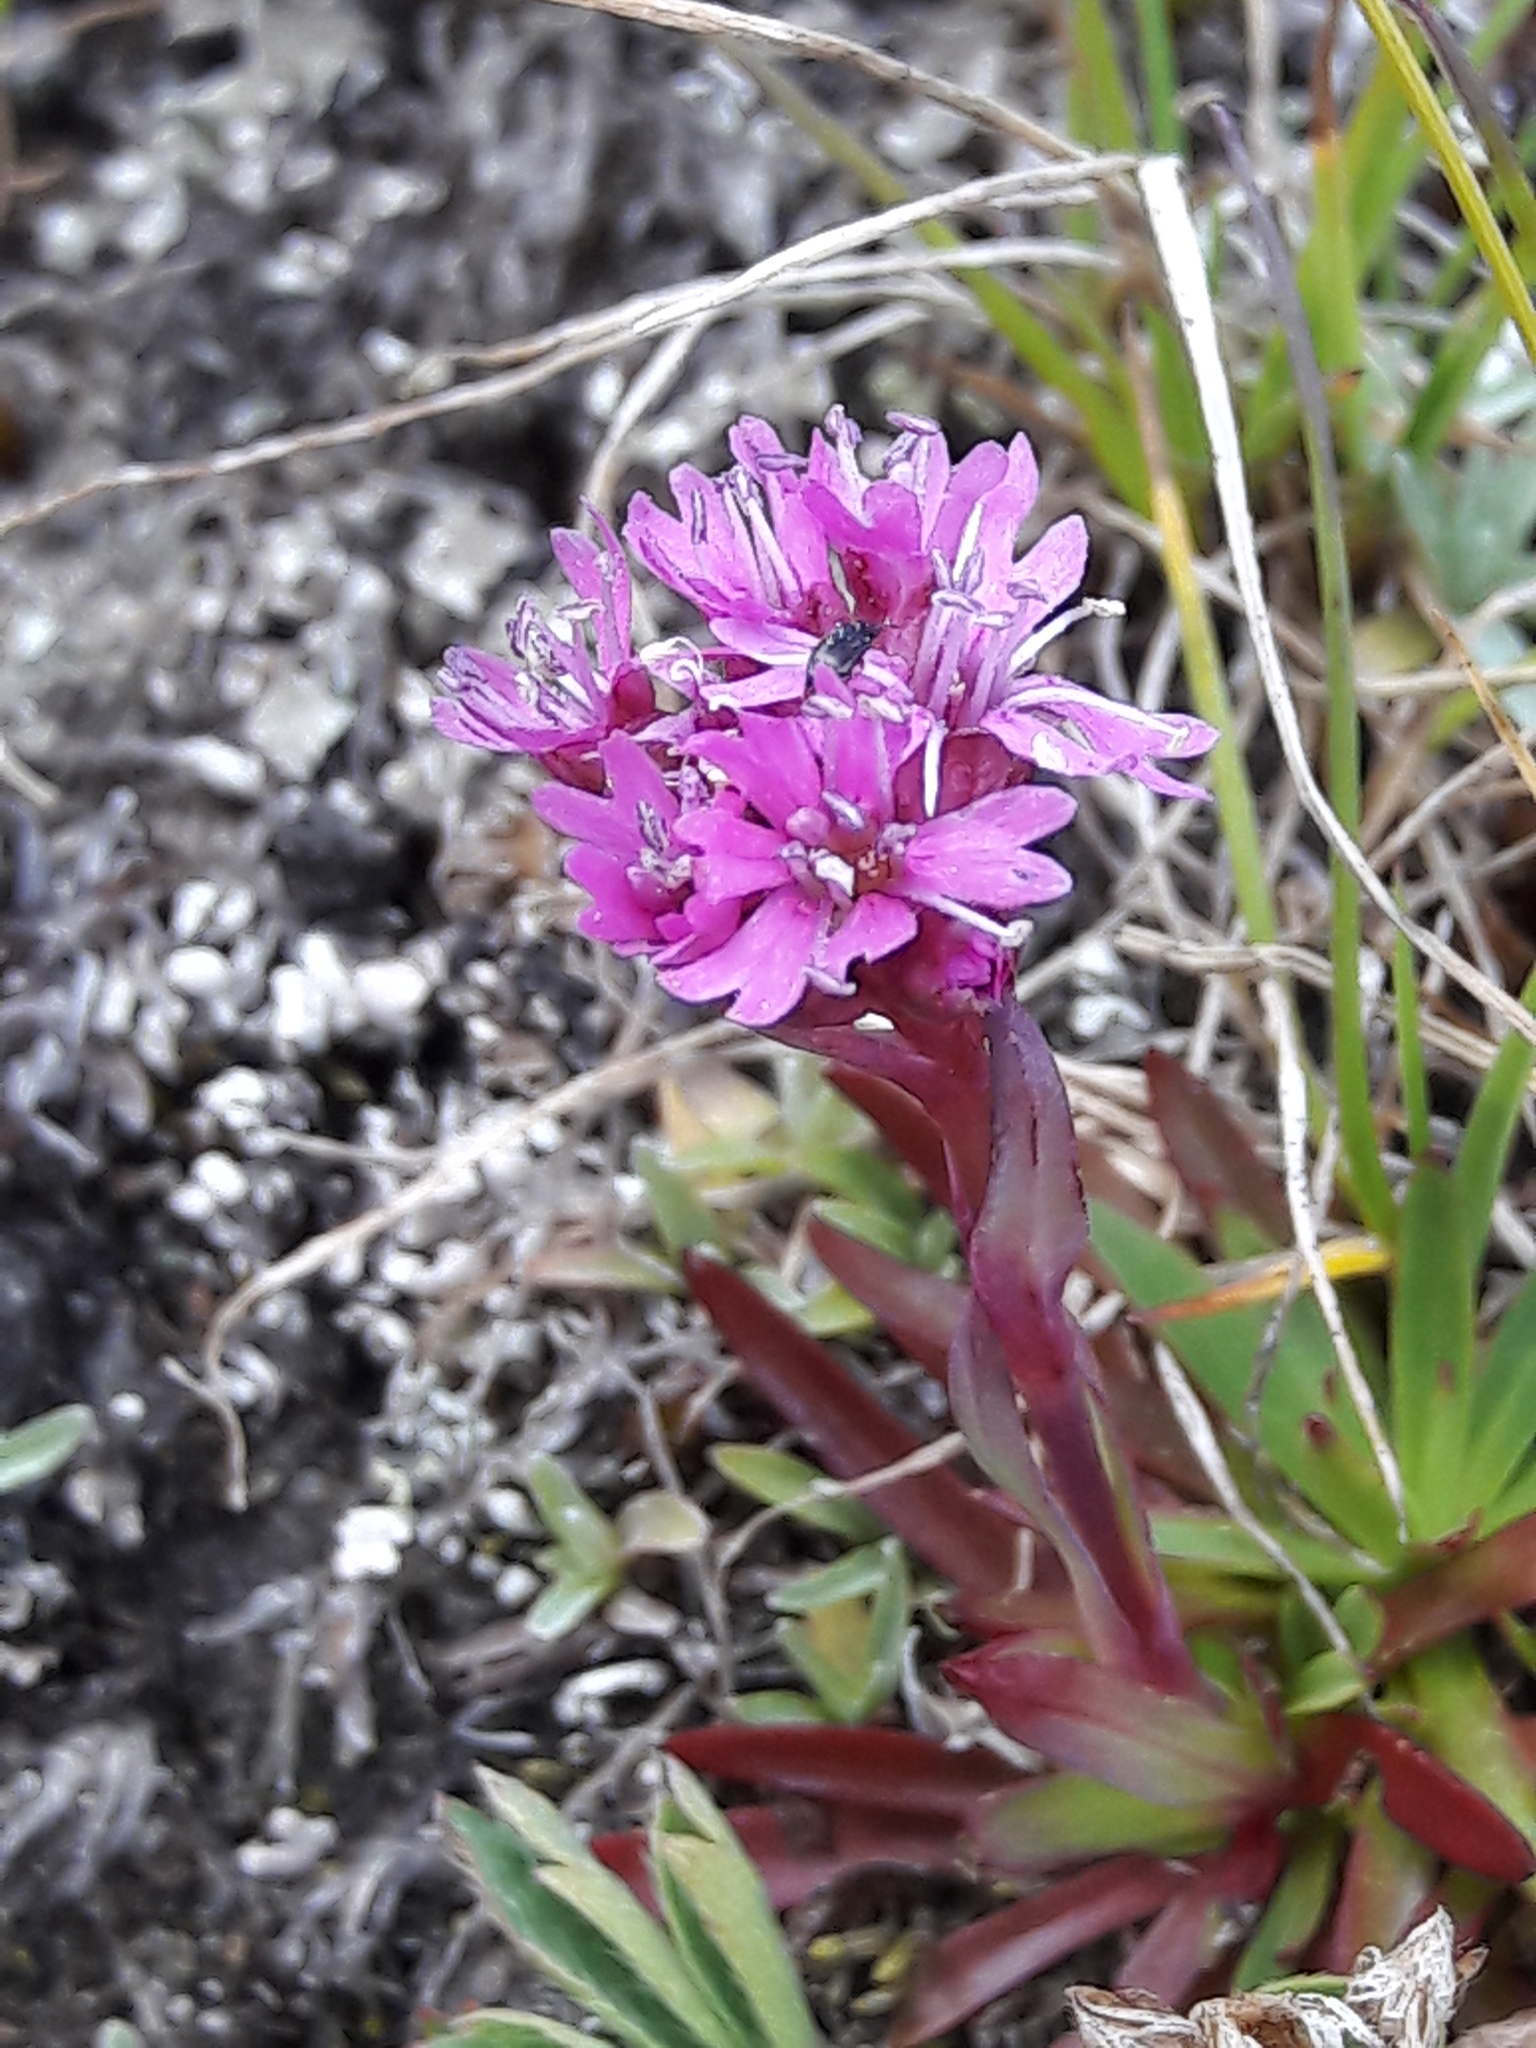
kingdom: Plantae
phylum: Tracheophyta
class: Magnoliopsida
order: Caryophyllales
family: Caryophyllaceae
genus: Viscaria
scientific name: Viscaria alpina
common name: Alpine campion
